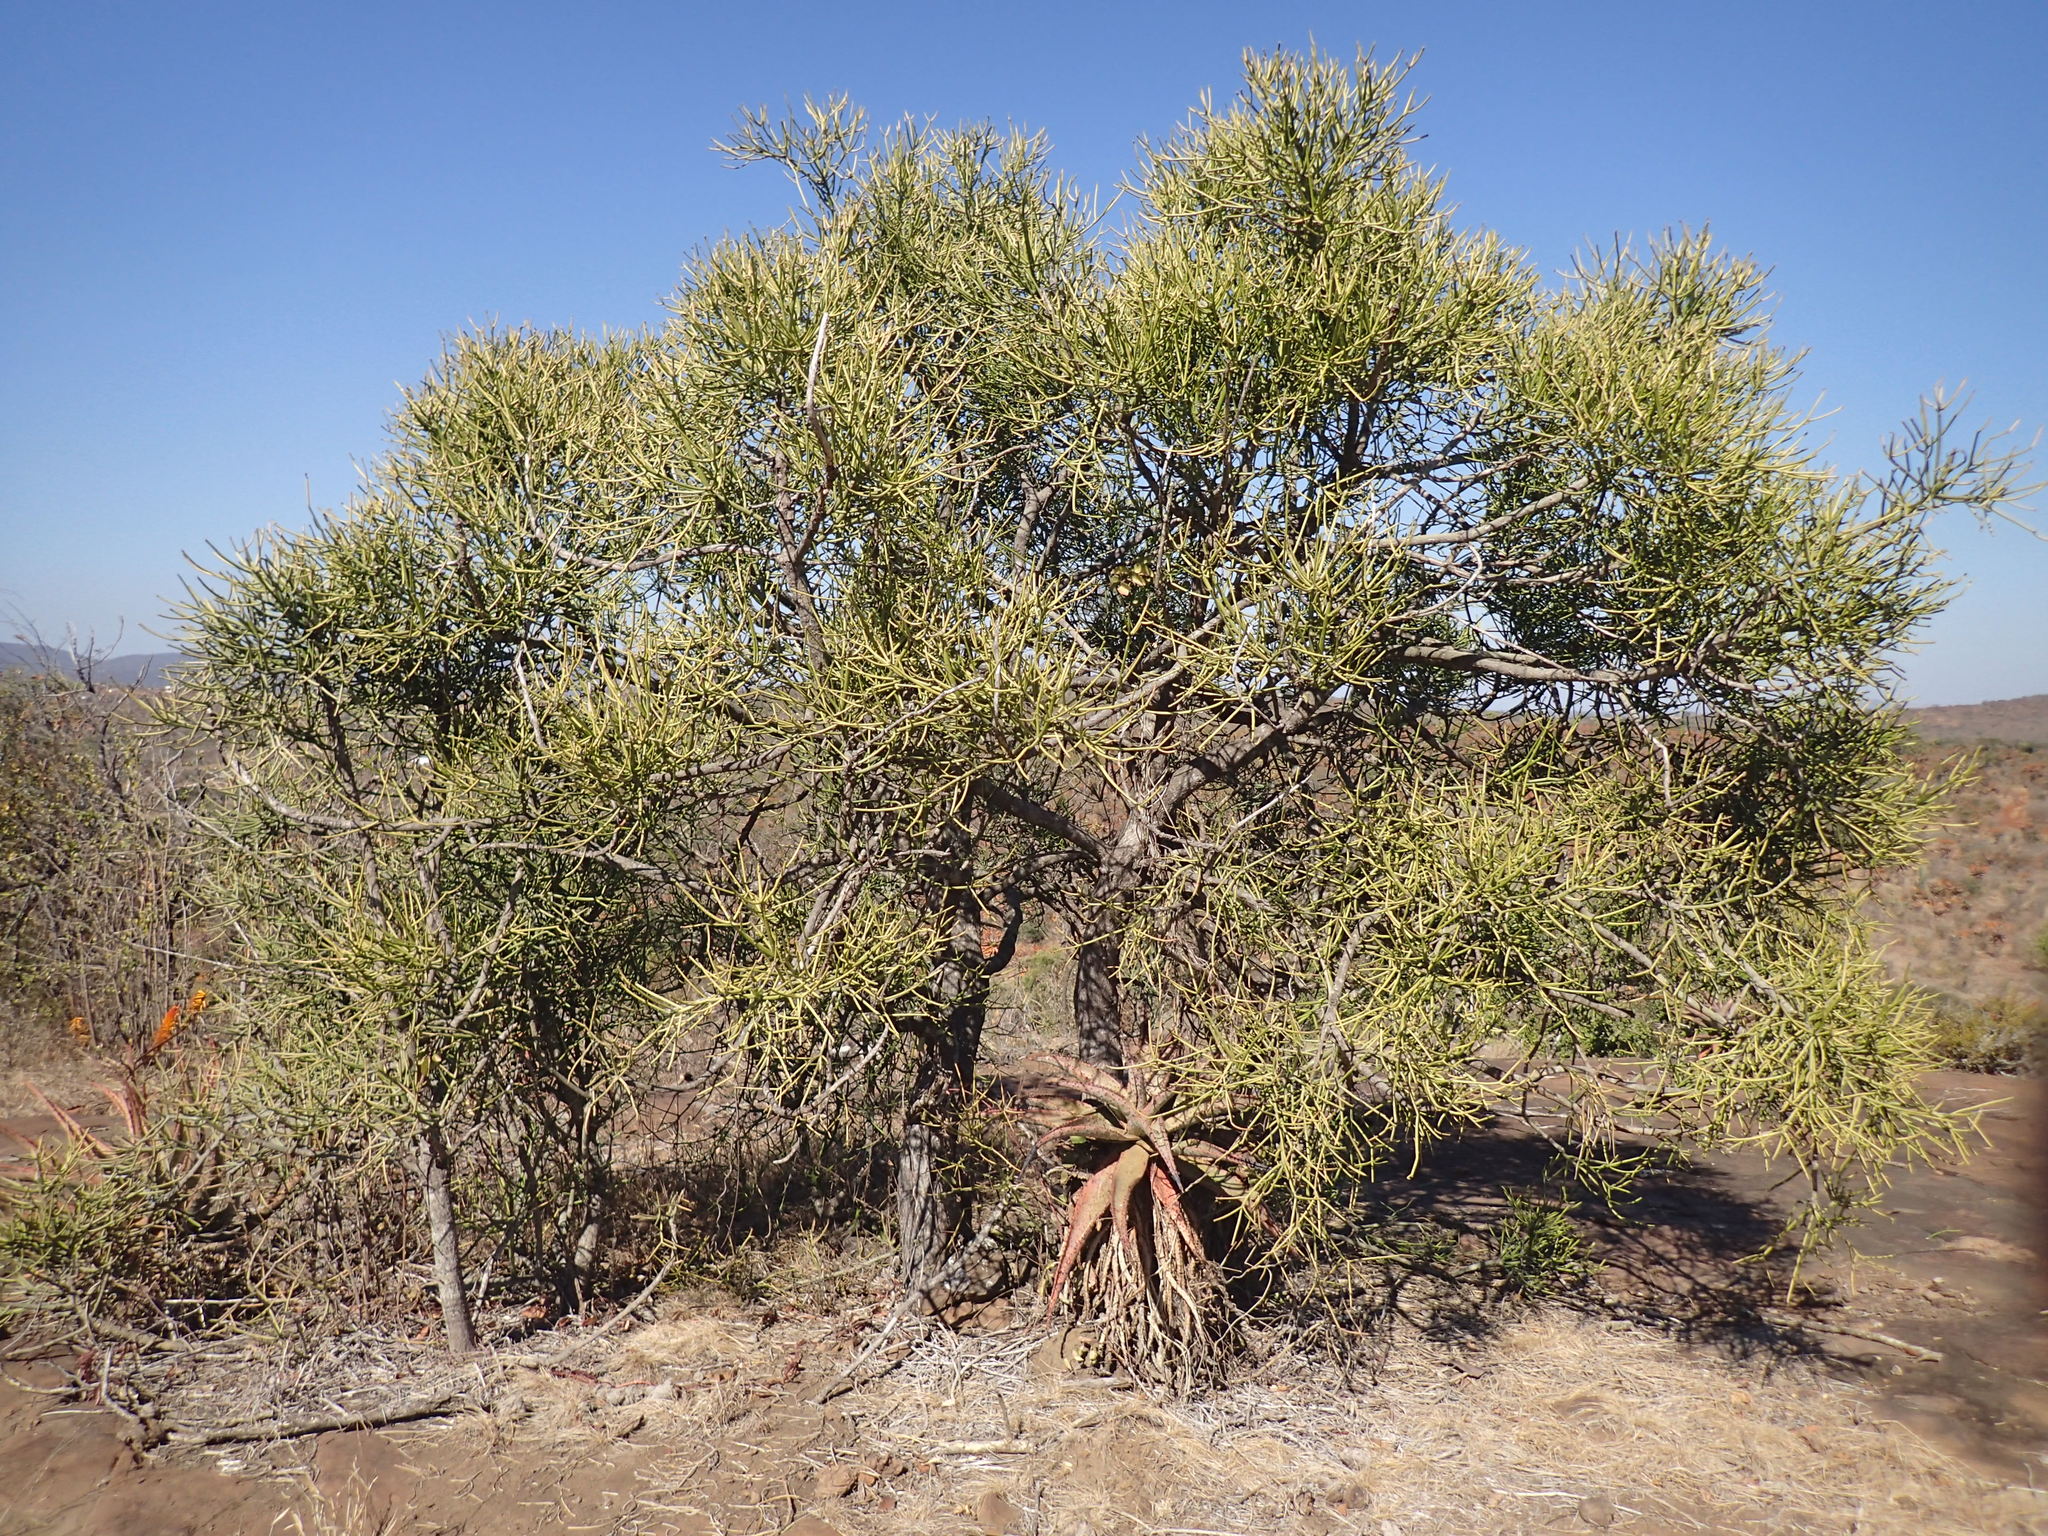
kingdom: Plantae
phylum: Tracheophyta
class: Magnoliopsida
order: Malpighiales
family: Euphorbiaceae
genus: Euphorbia
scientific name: Euphorbia tirucalli
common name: Indiantree spurge
